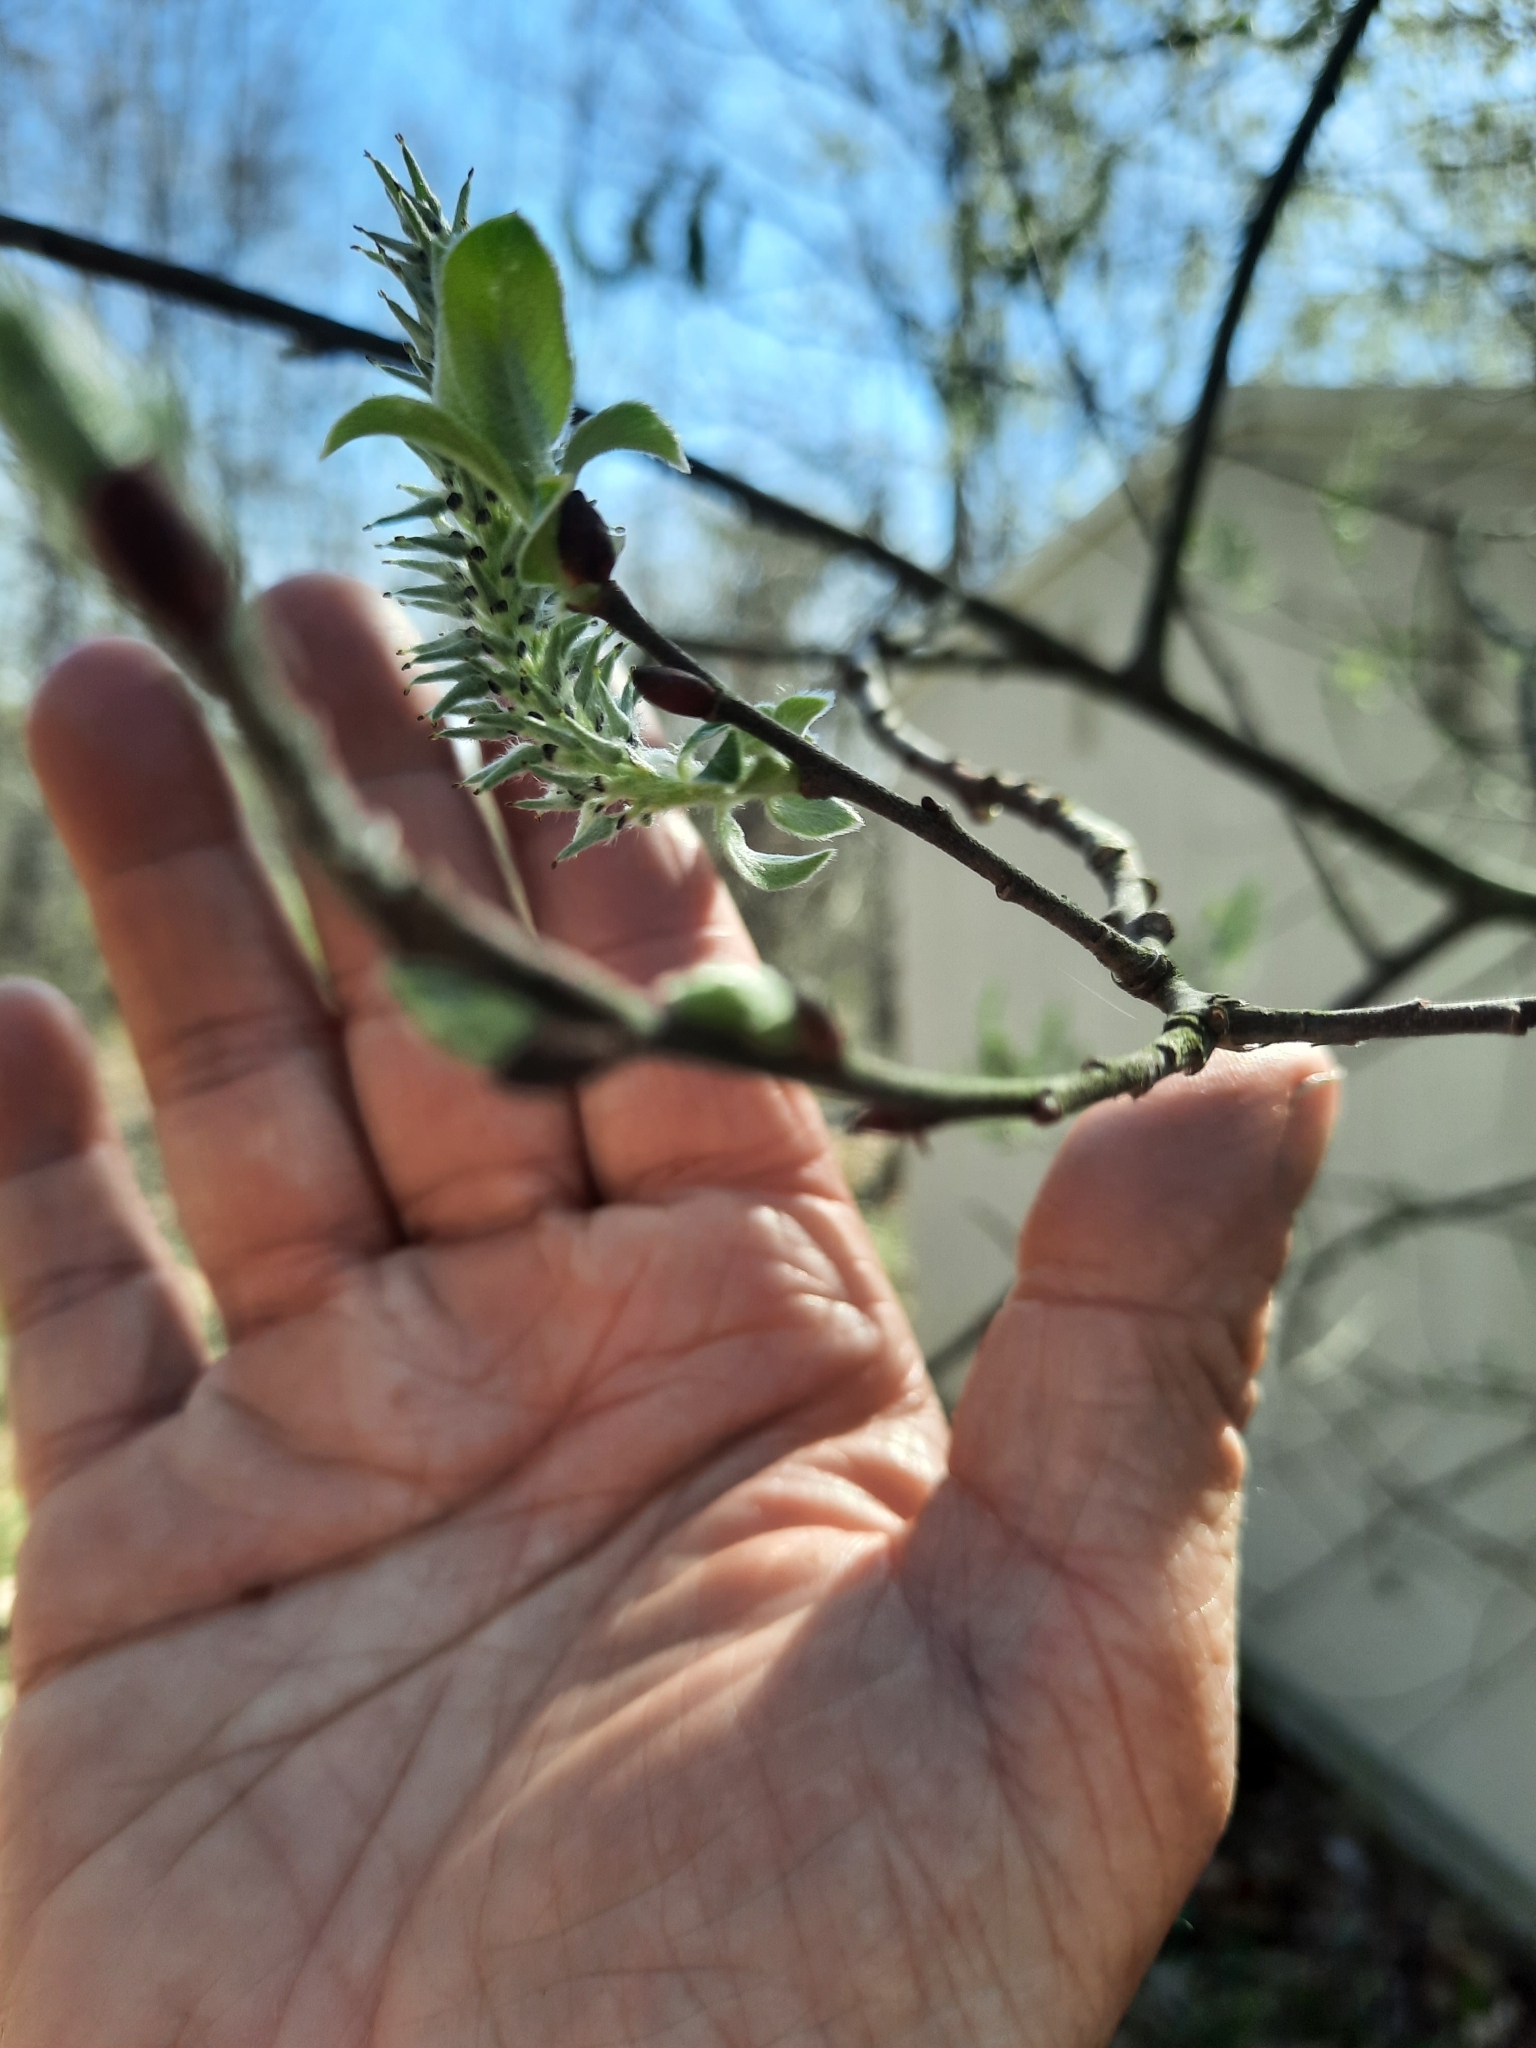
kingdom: Plantae
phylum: Tracheophyta
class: Magnoliopsida
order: Malpighiales
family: Salicaceae
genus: Salix
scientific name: Salix discolor
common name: Glaucous willow
